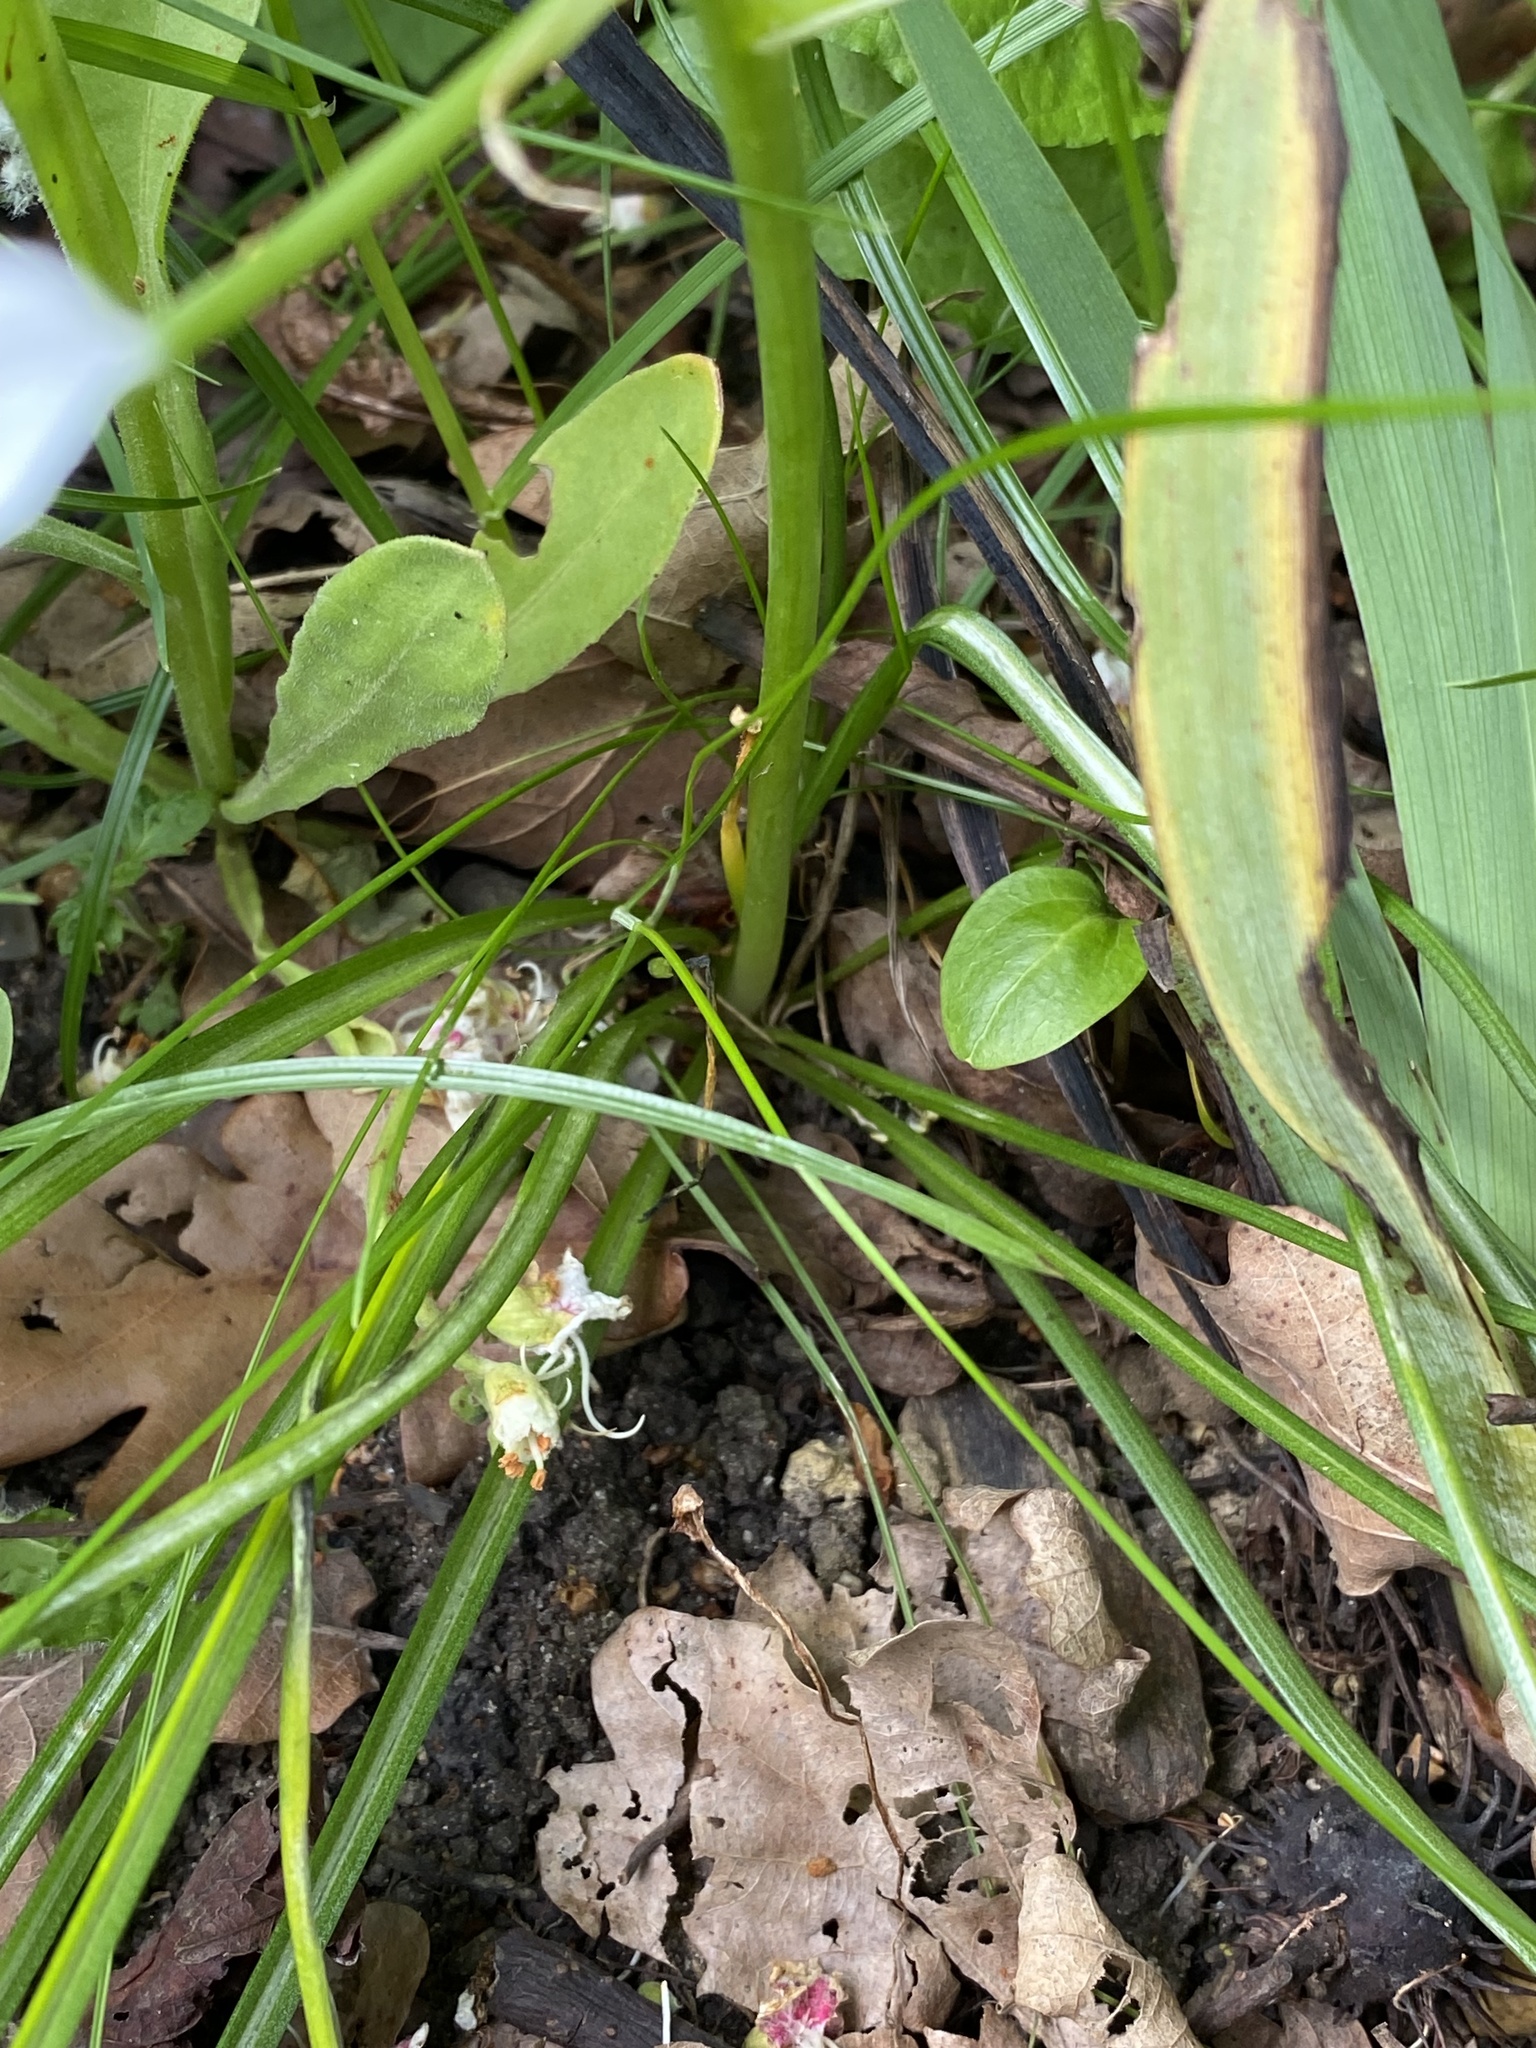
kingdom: Plantae
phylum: Tracheophyta
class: Liliopsida
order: Asparagales
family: Asparagaceae
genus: Ornithogalum
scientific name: Ornithogalum umbellatum
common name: Garden star-of-bethlehem
